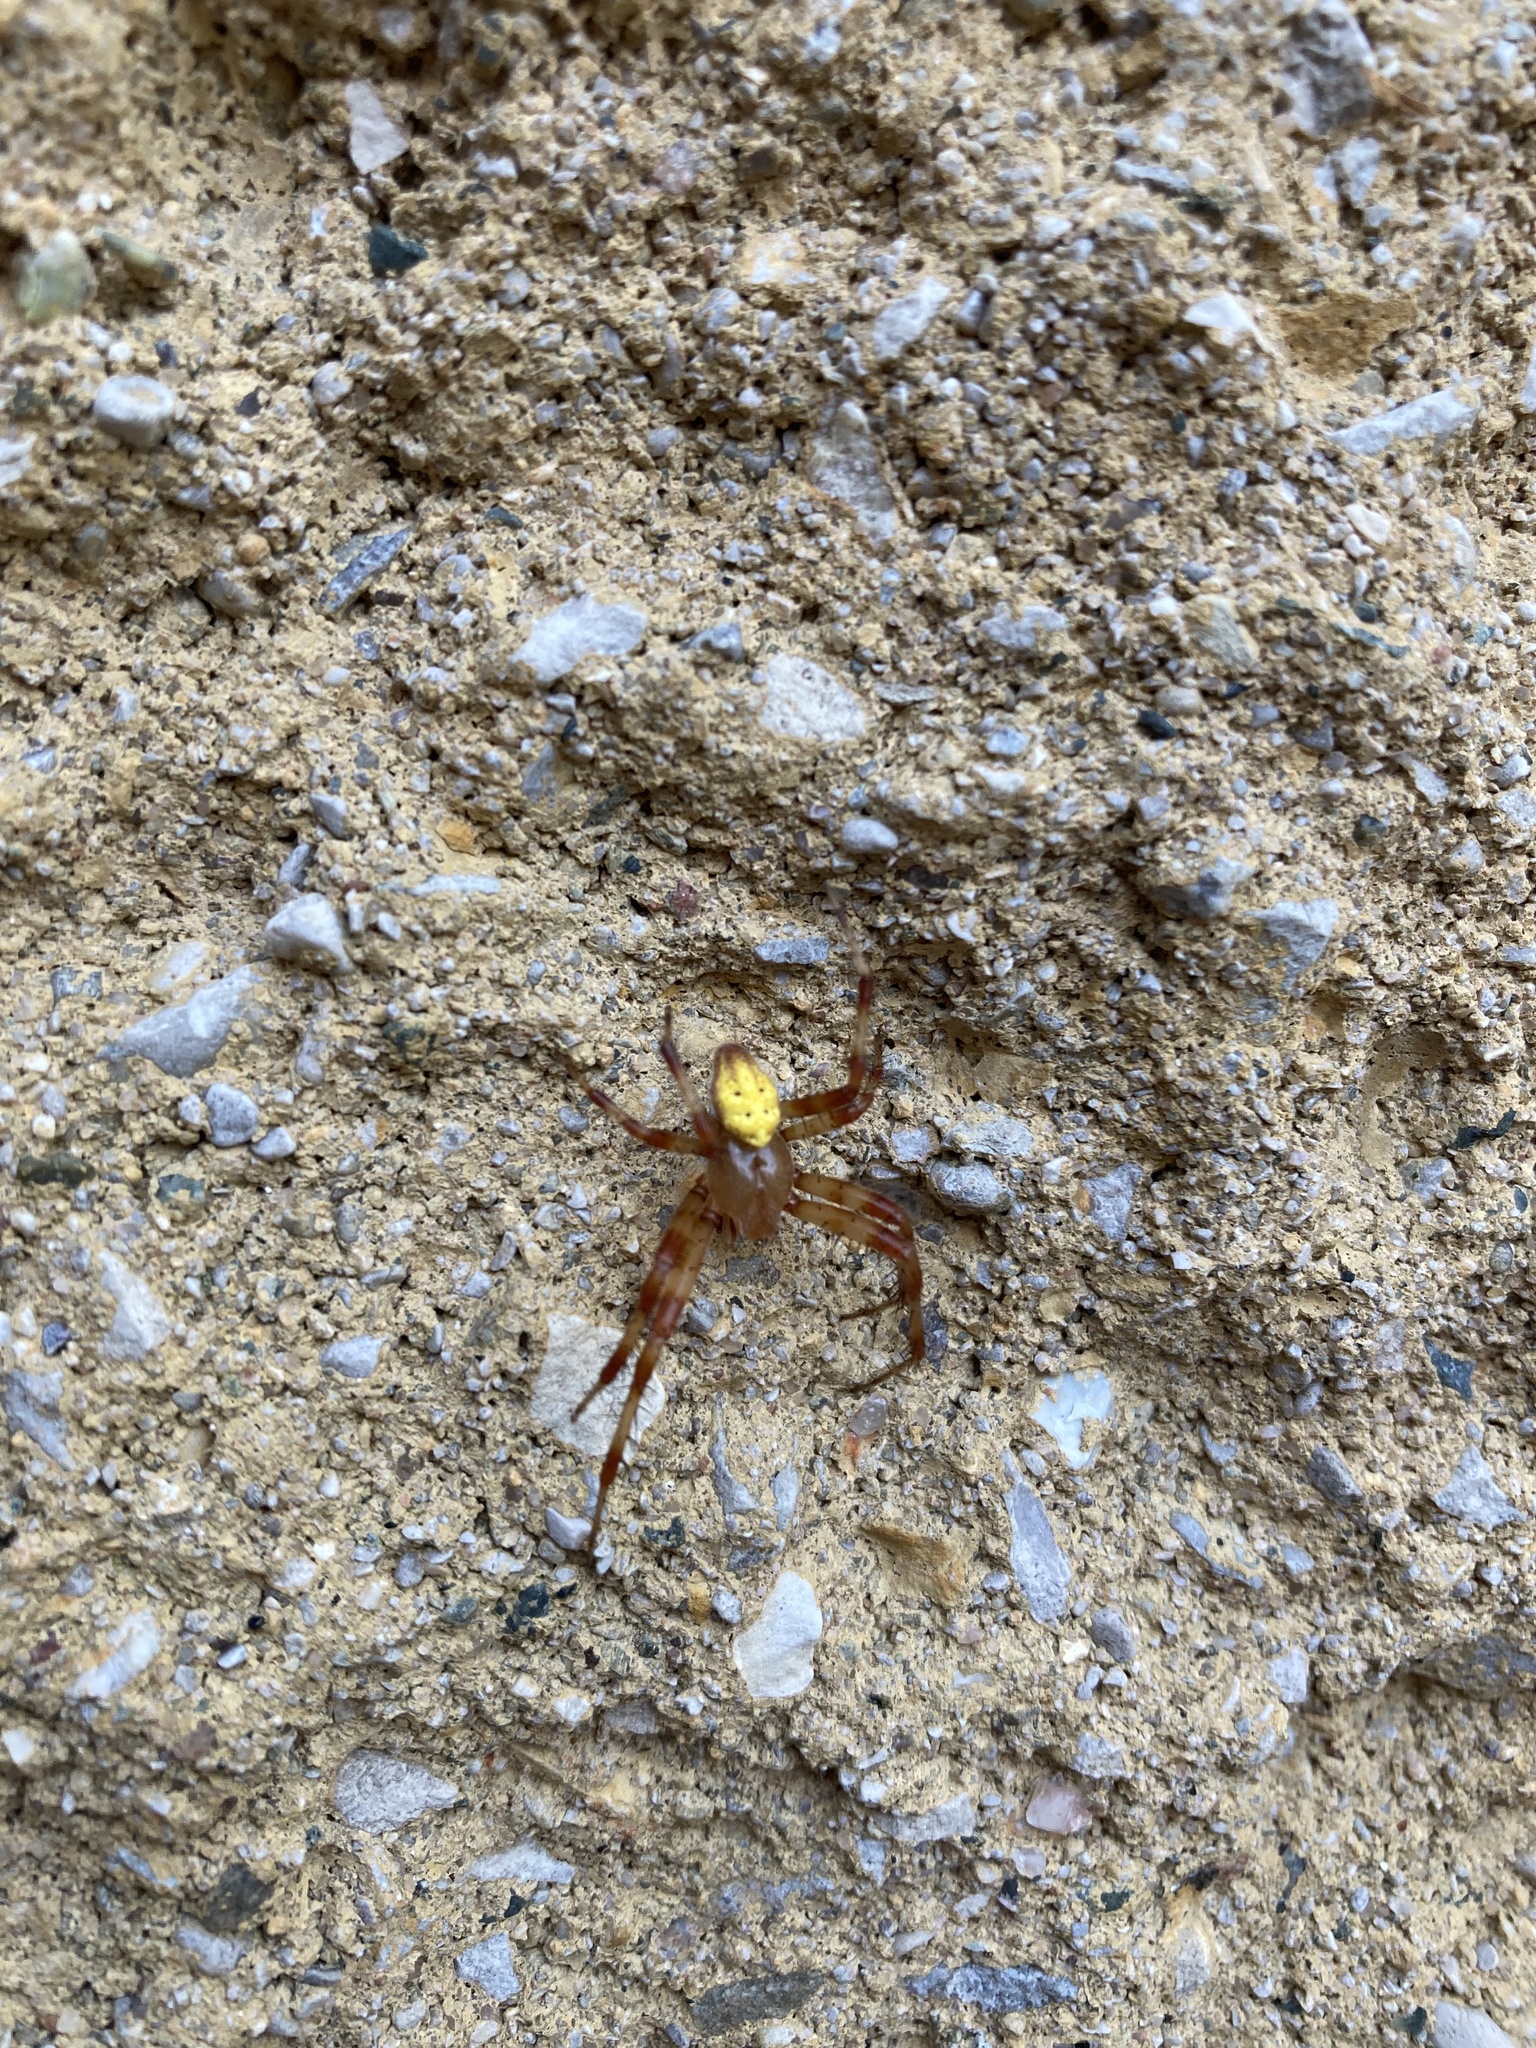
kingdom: Animalia
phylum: Arthropoda
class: Arachnida
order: Araneae
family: Araneidae
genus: Araneus
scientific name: Araneus trifolium
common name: Shamrock orbweaver
